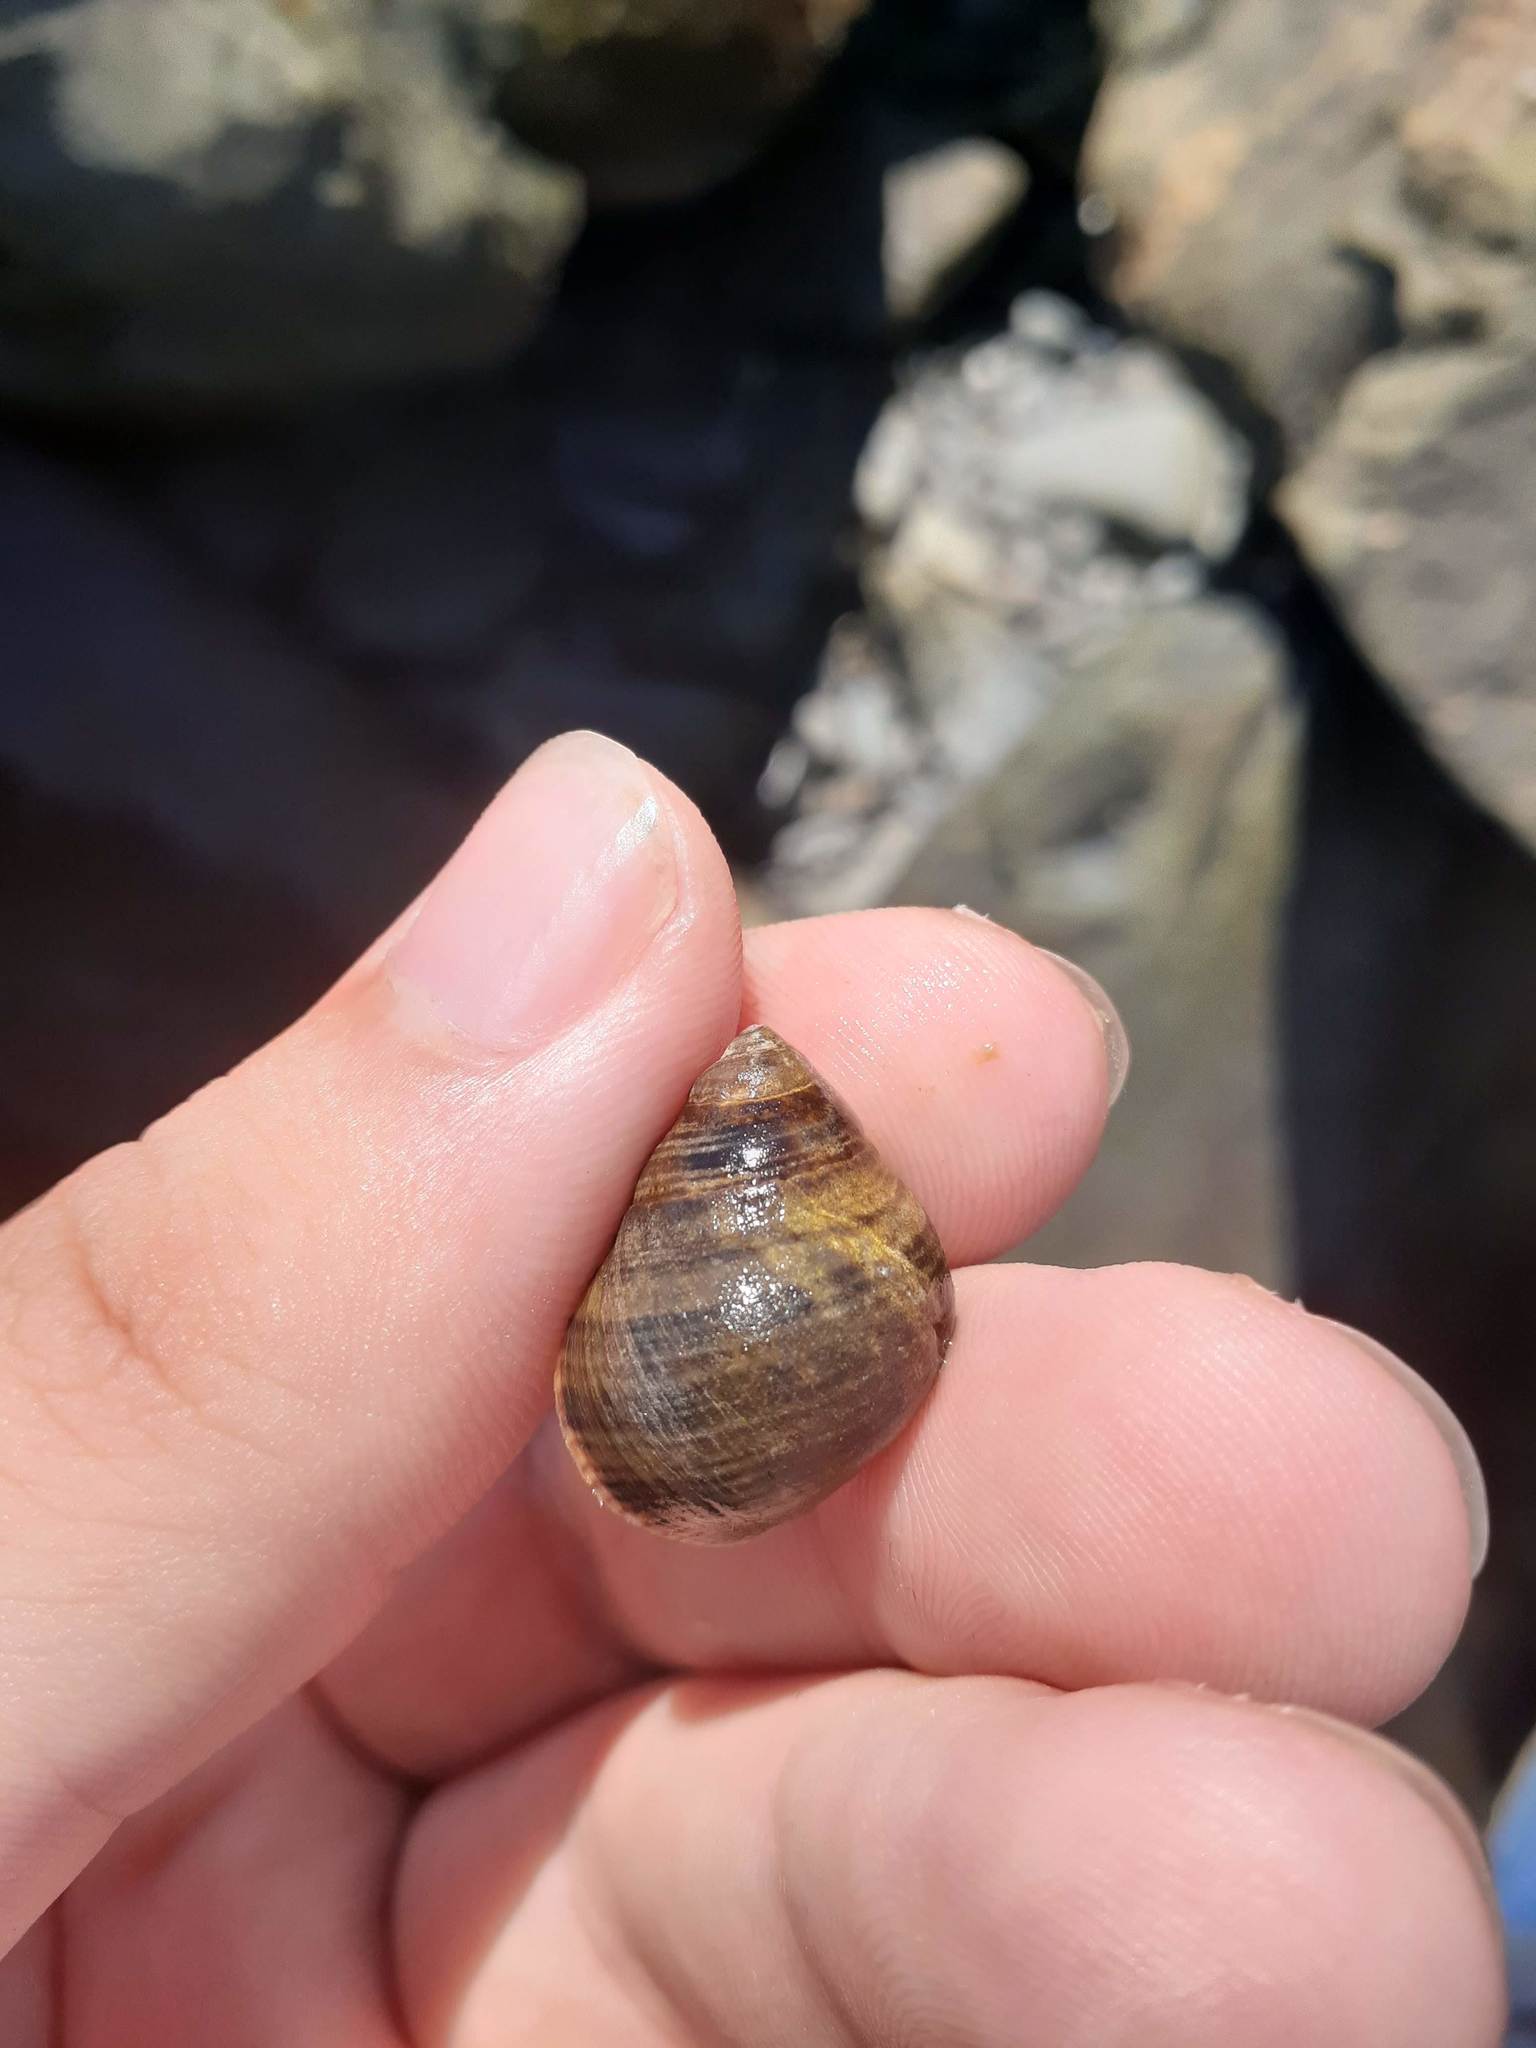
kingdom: Animalia
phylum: Mollusca
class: Gastropoda
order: Littorinimorpha
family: Littorinidae
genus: Littorina
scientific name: Littorina littorea
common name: Common periwinkle
